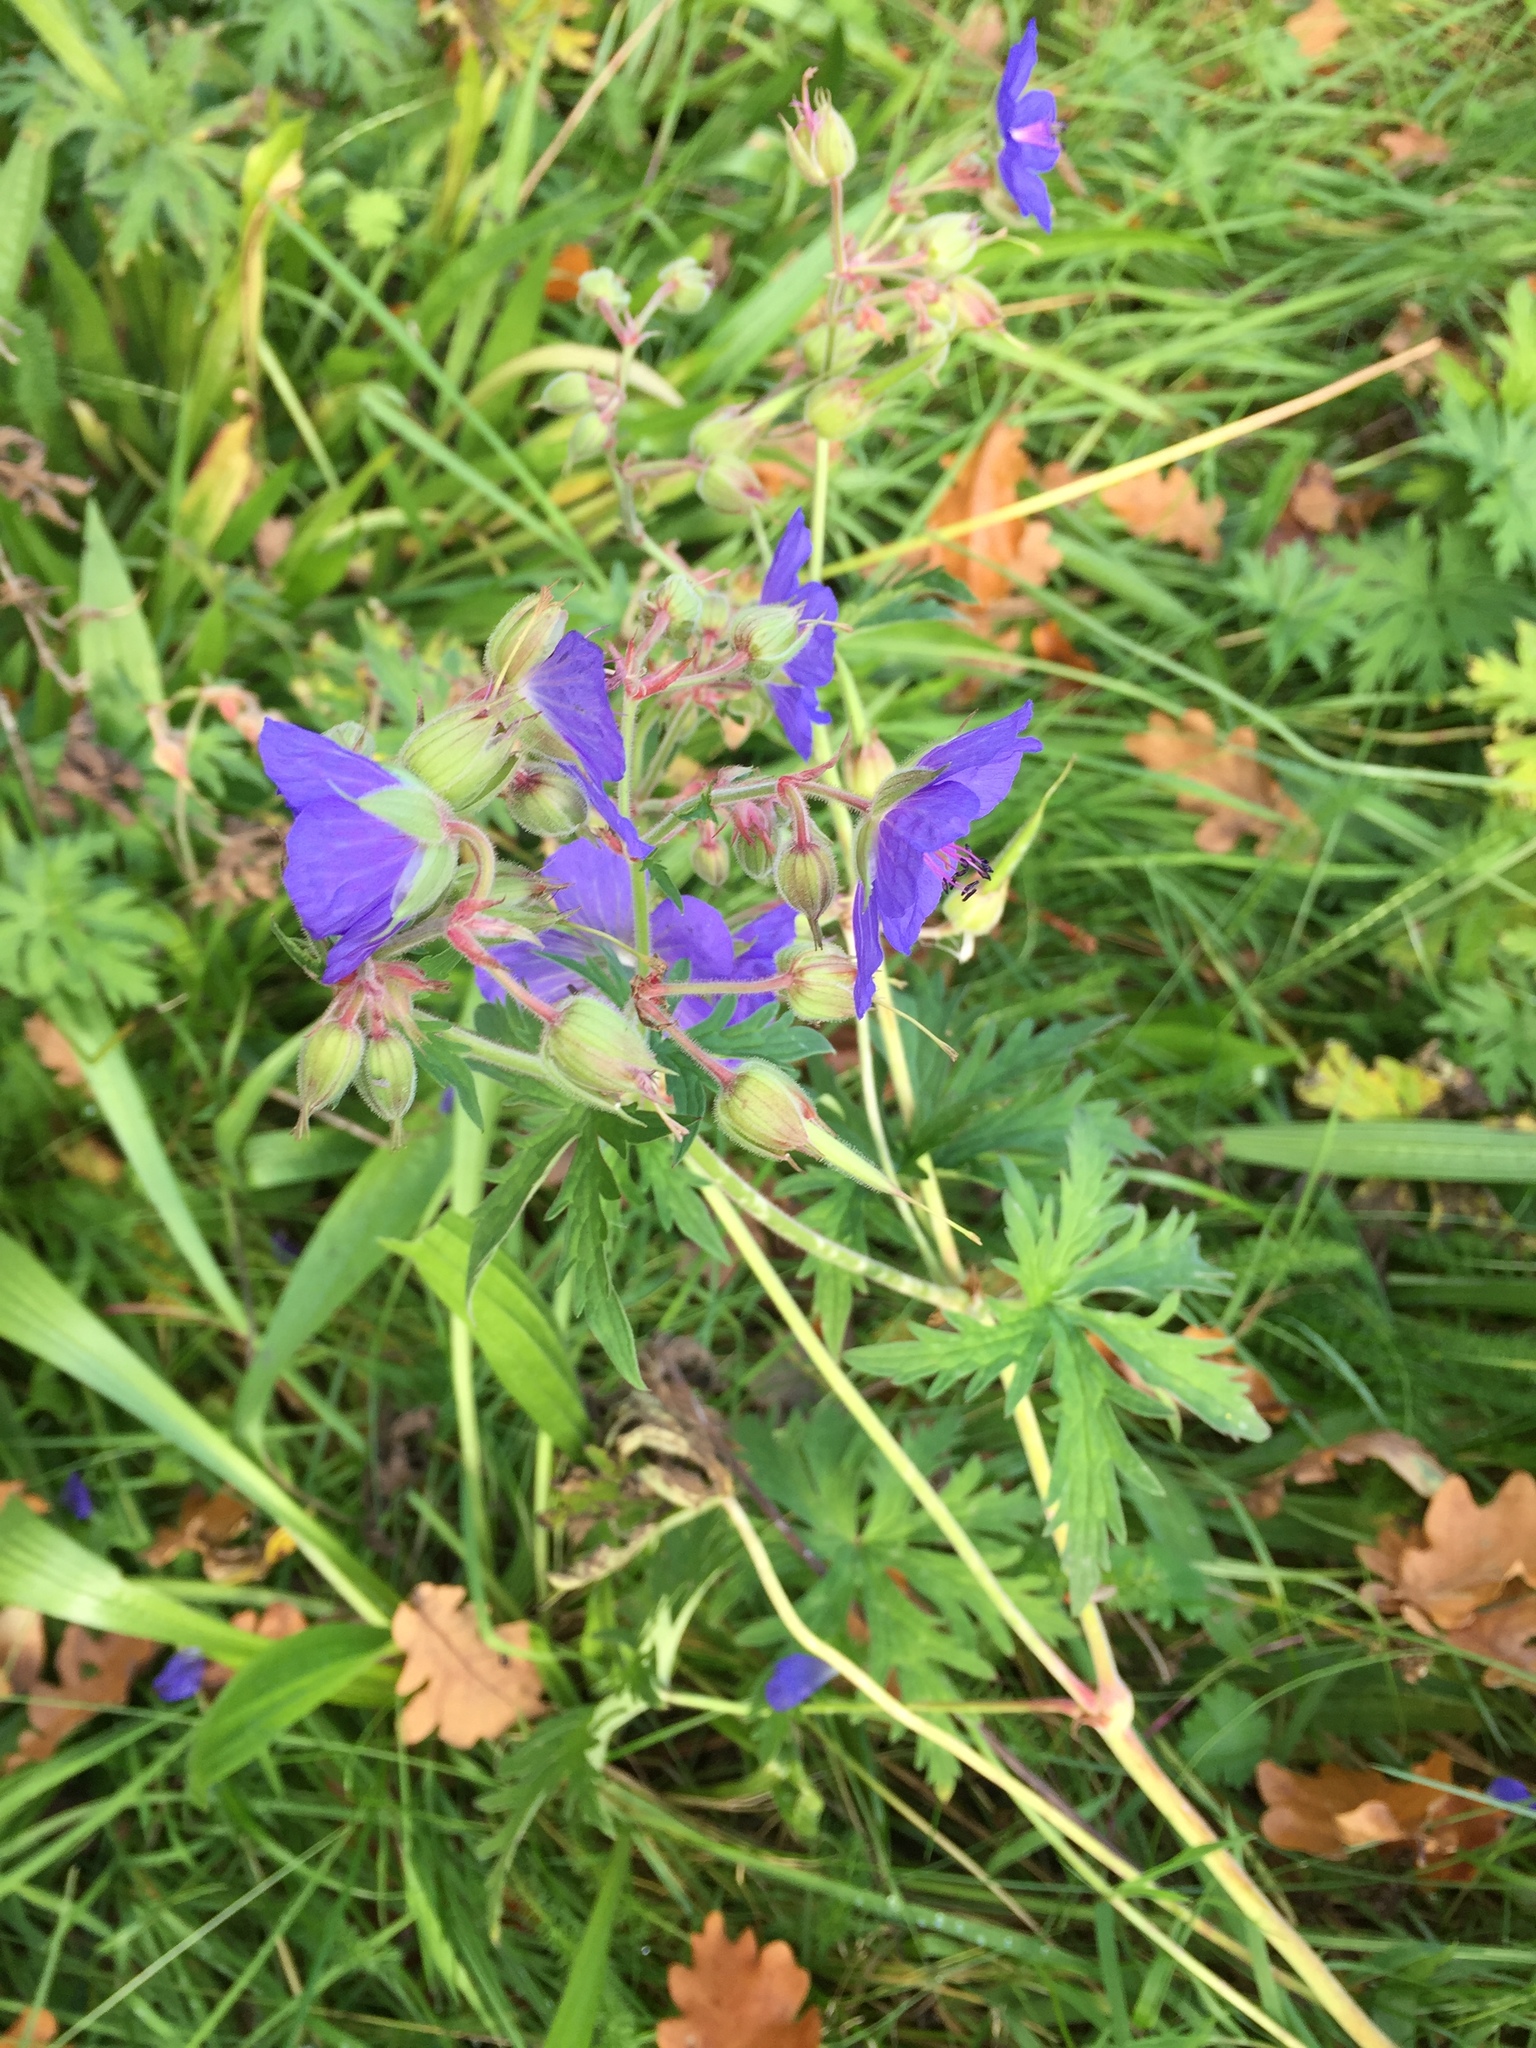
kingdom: Plantae
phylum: Tracheophyta
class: Magnoliopsida
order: Geraniales
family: Geraniaceae
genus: Geranium
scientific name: Geranium pratense
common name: Meadow crane's-bill
